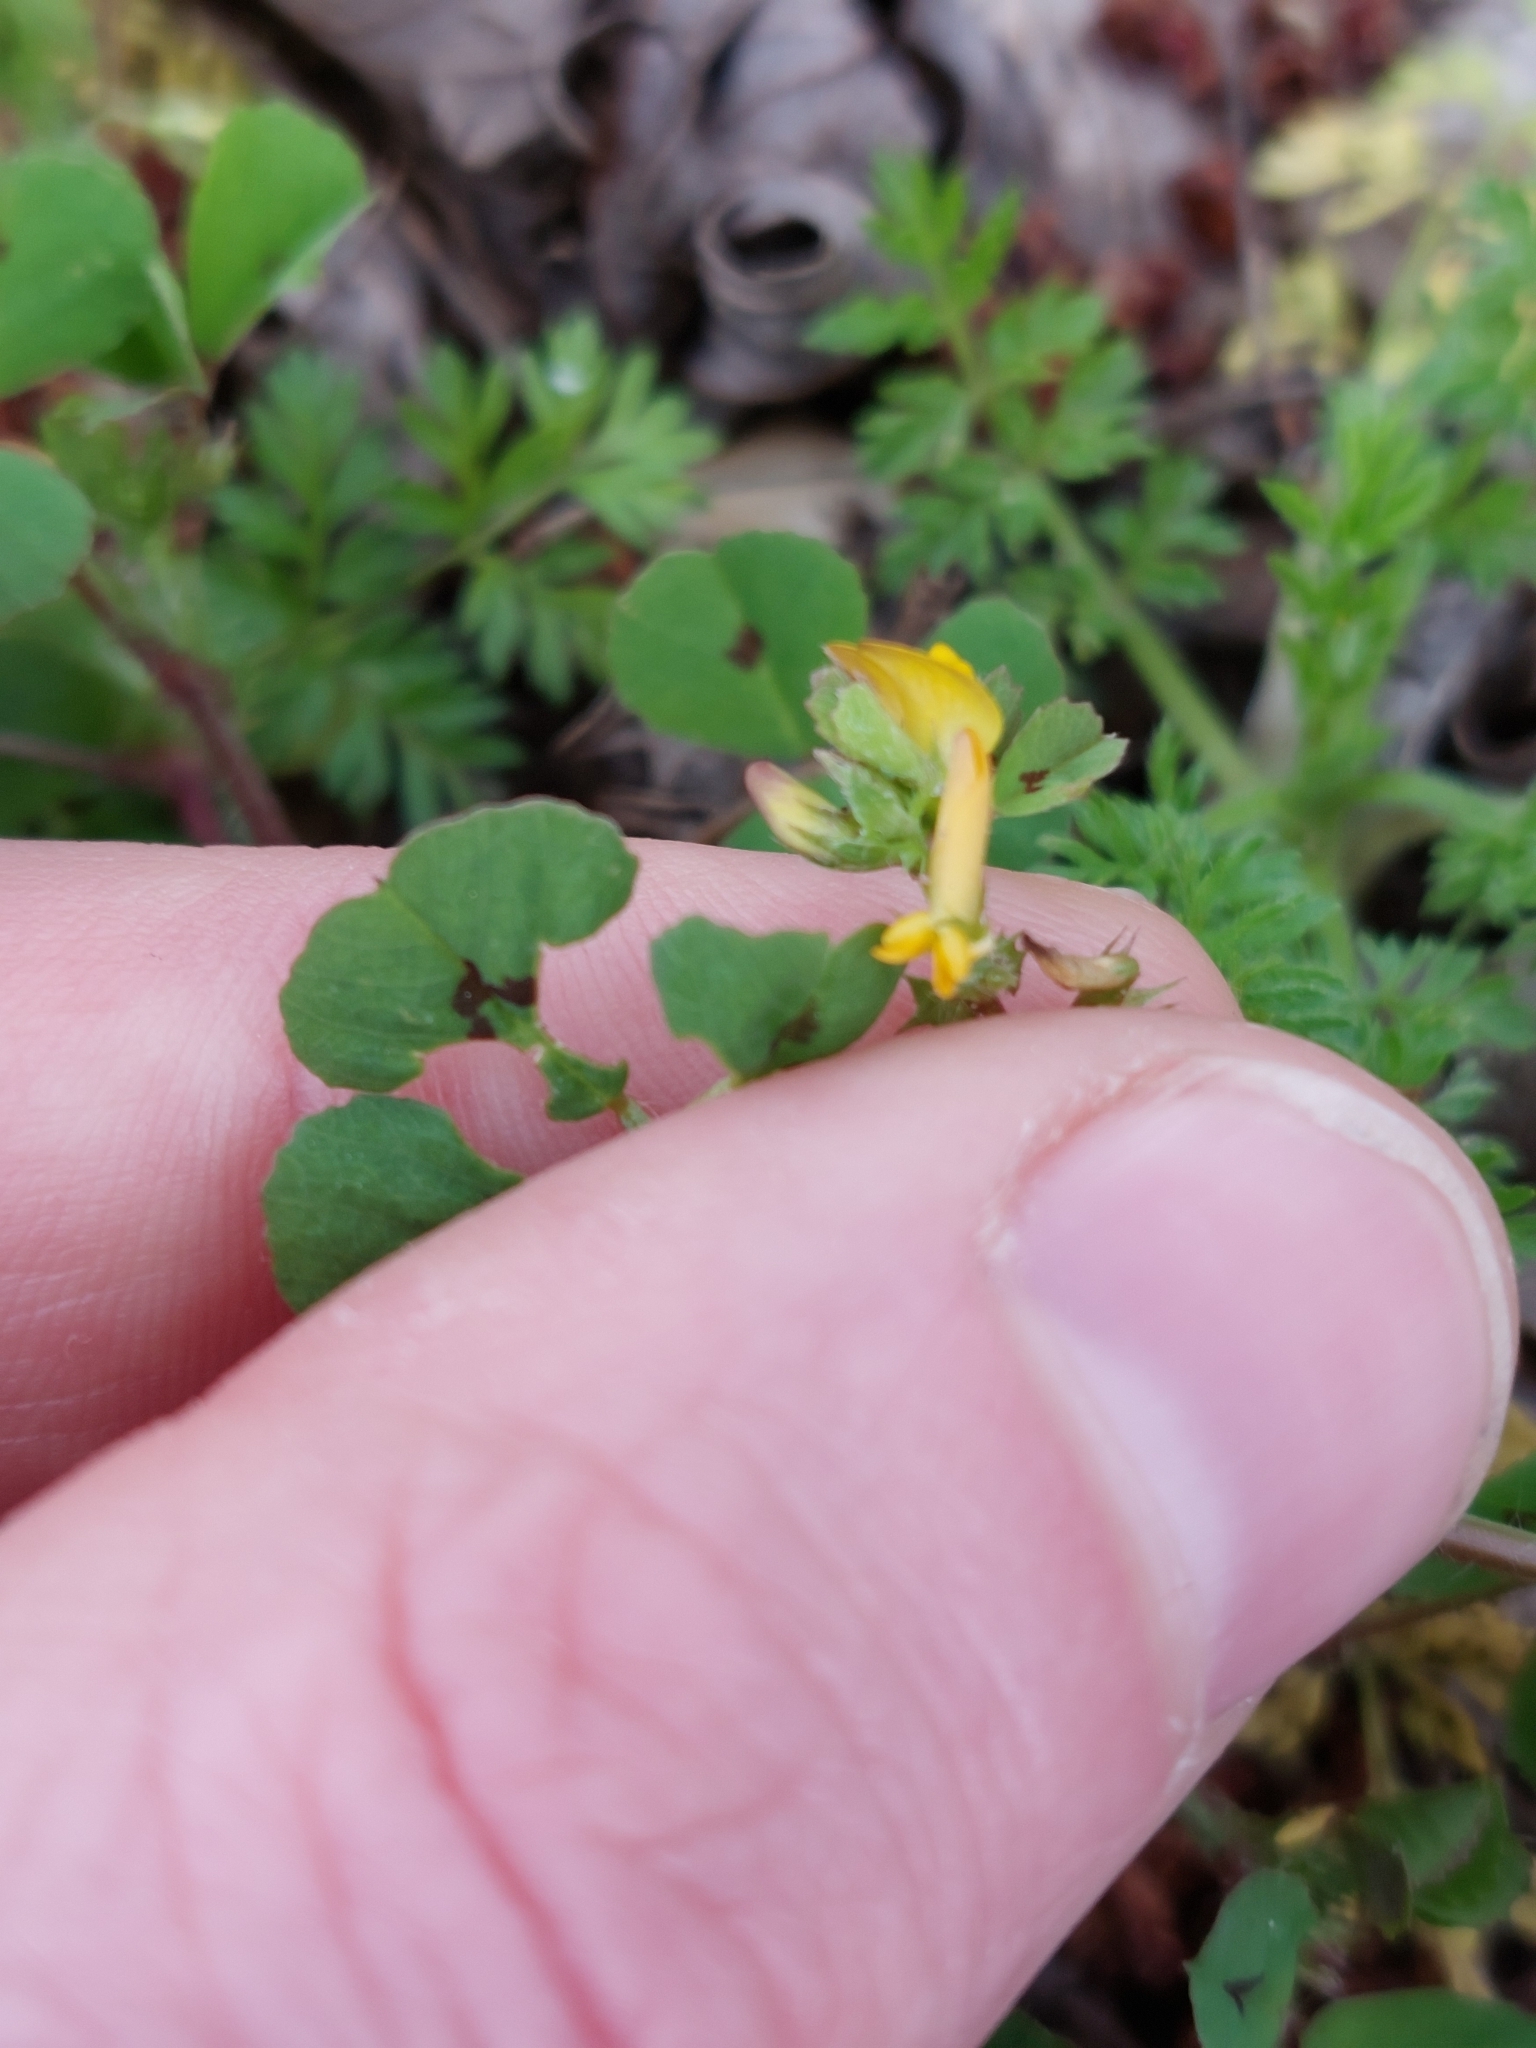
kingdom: Plantae
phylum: Tracheophyta
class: Magnoliopsida
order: Fabales
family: Fabaceae
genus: Medicago
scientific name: Medicago arabica
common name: Spotted medick
